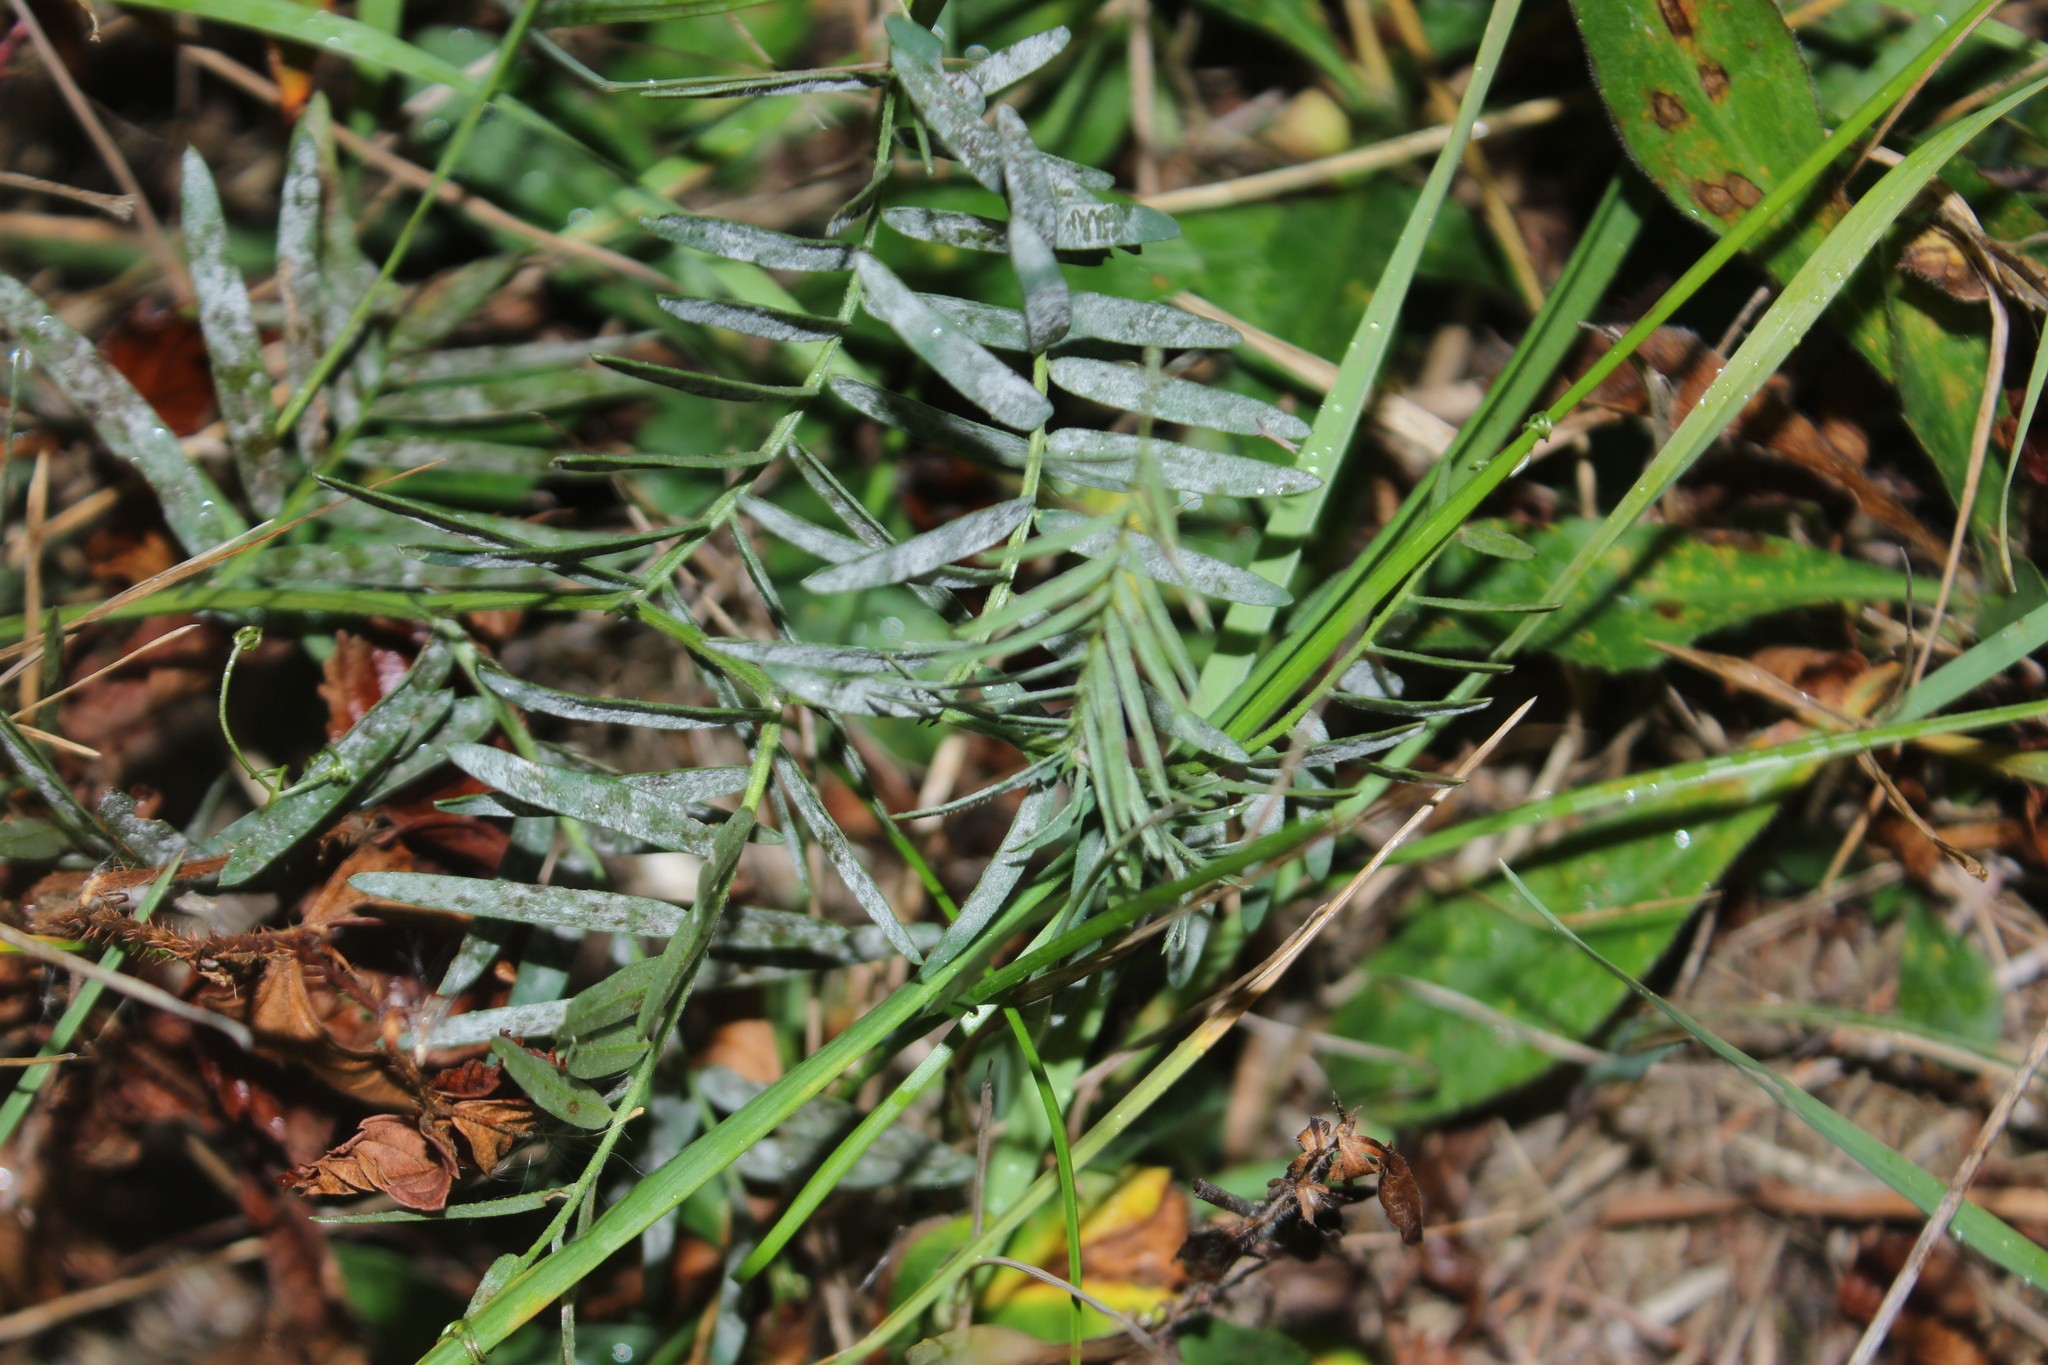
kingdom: Fungi
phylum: Ascomycota
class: Leotiomycetes
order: Helotiales
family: Erysiphaceae
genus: Erysiphe
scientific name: Erysiphe
